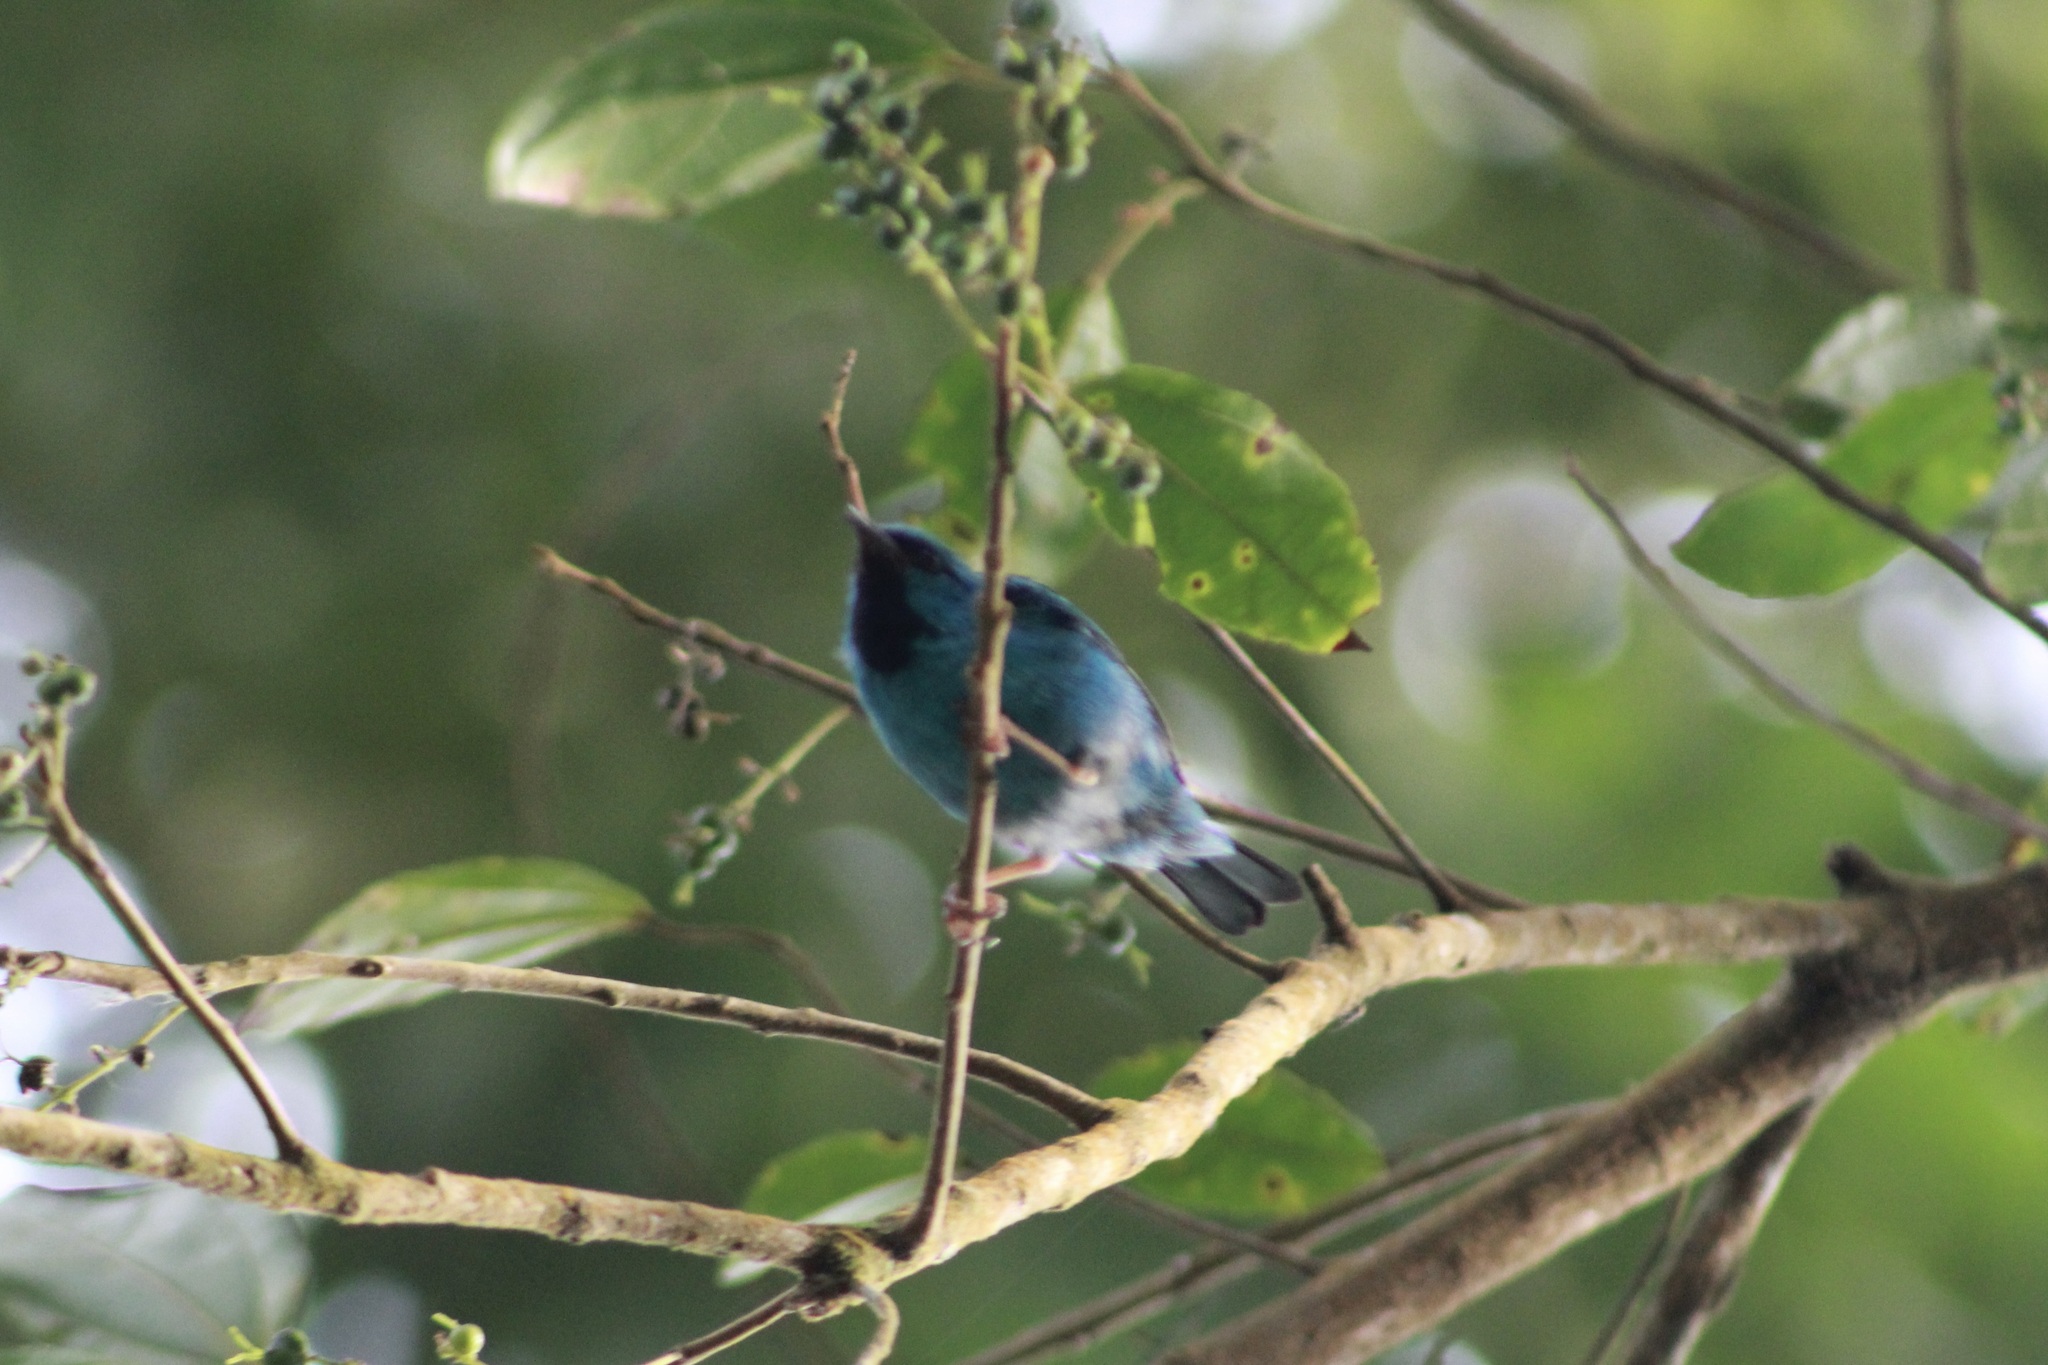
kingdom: Animalia
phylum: Chordata
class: Aves
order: Passeriformes
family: Thraupidae
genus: Dacnis
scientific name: Dacnis cayana
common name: Blue dacnis
